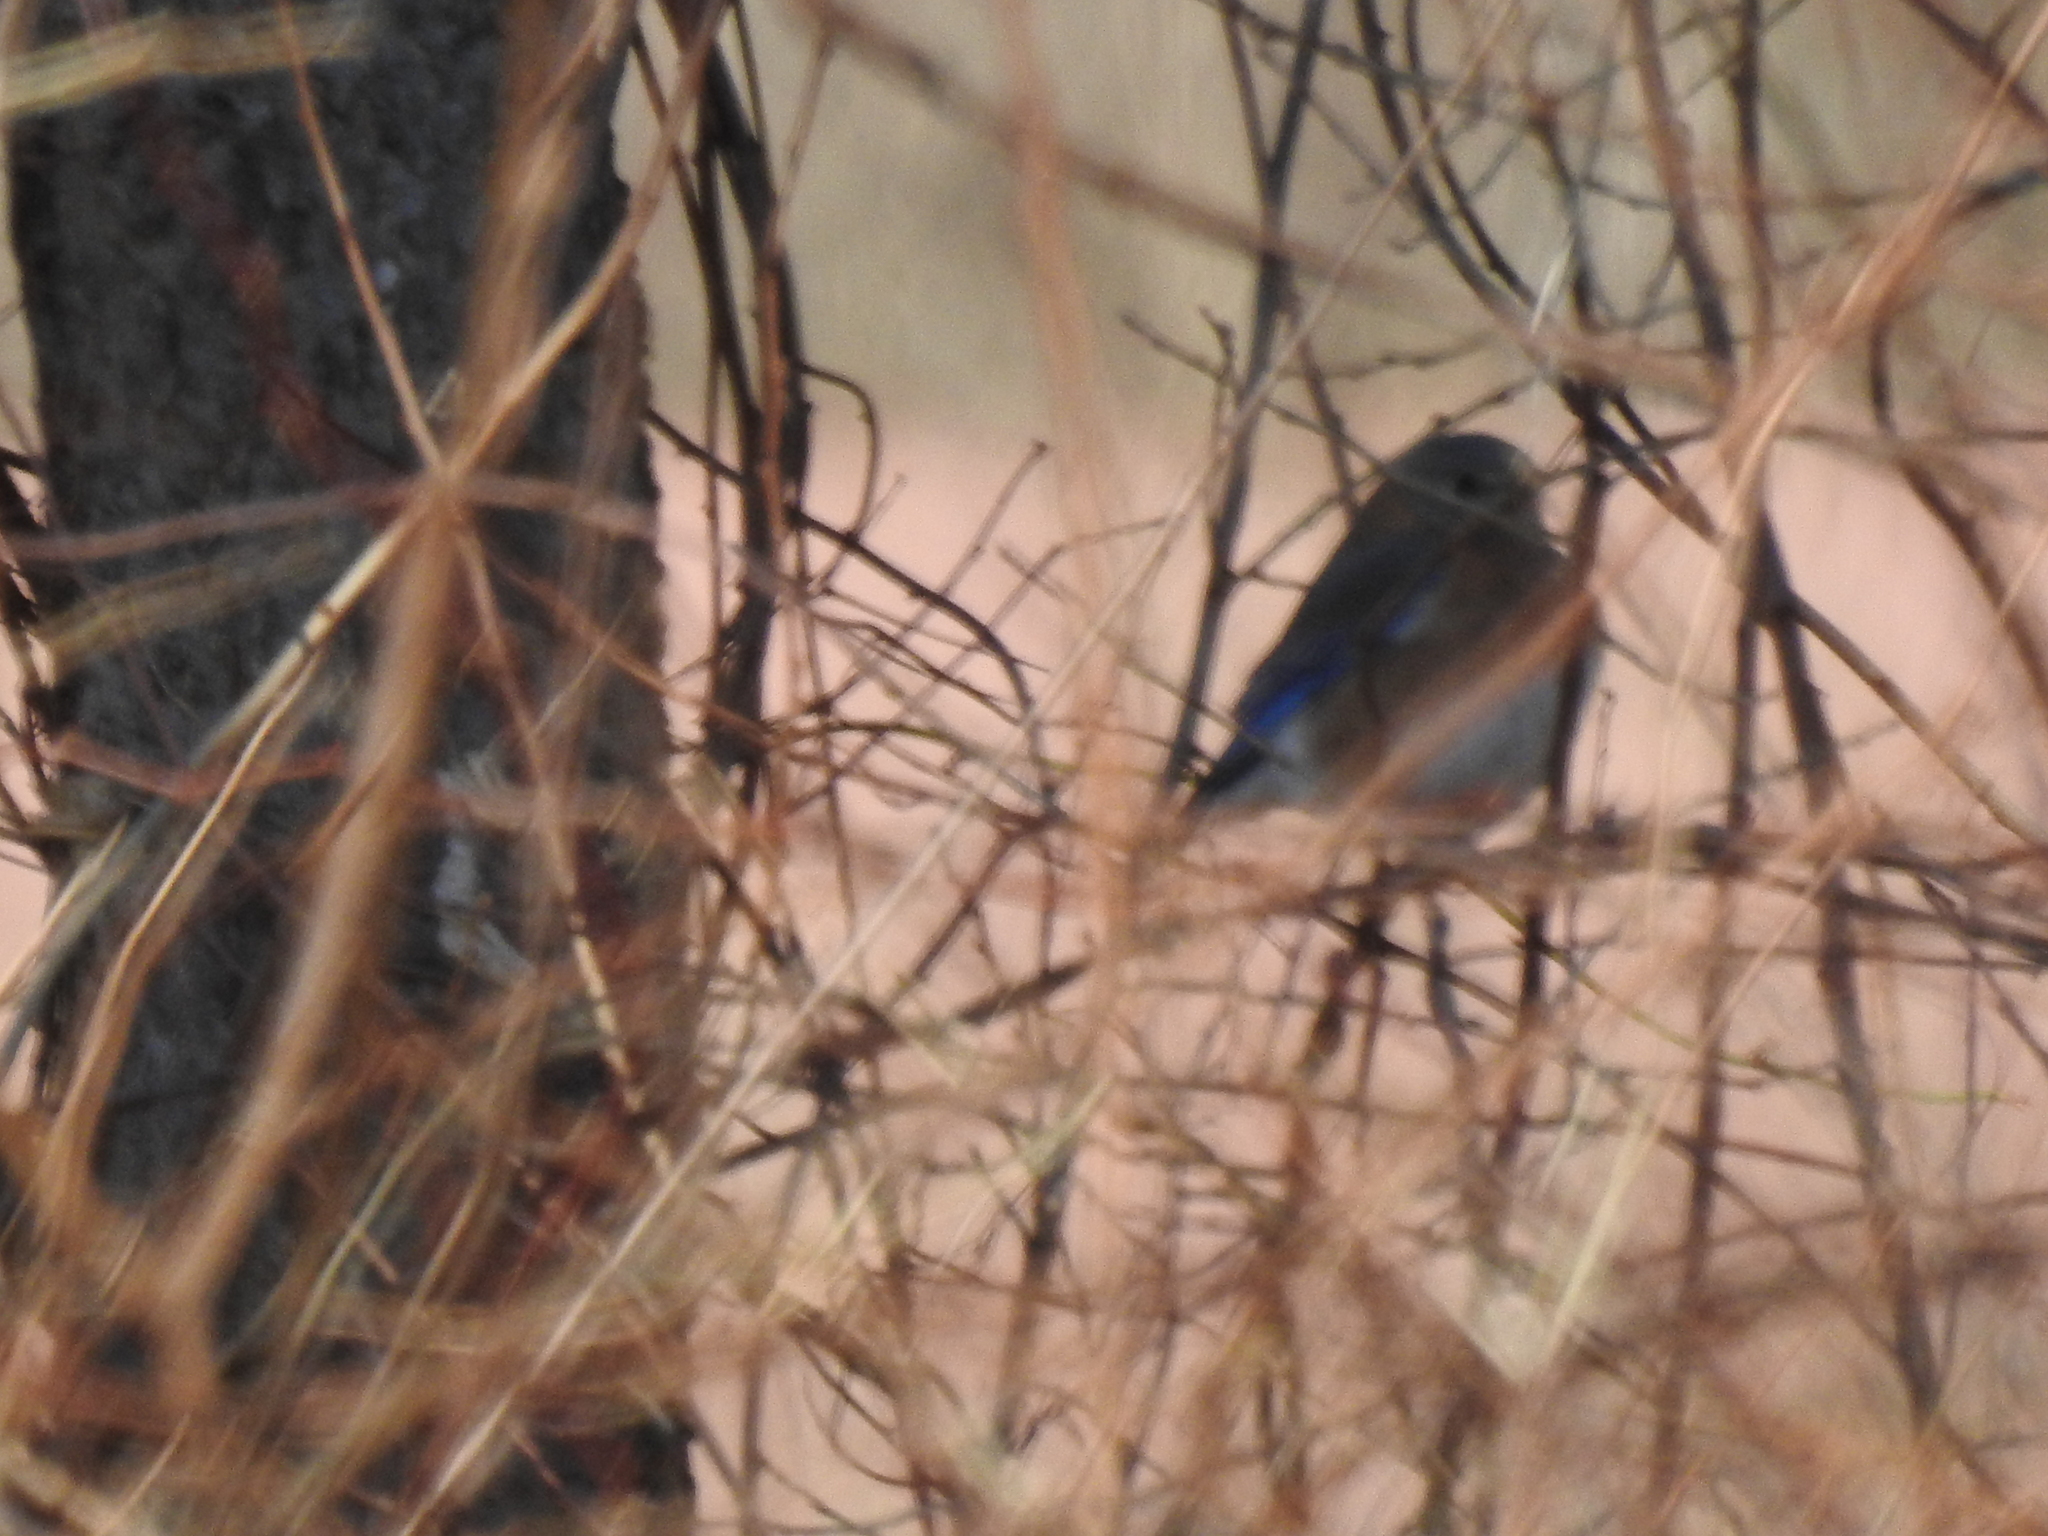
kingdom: Animalia
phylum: Chordata
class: Aves
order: Passeriformes
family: Turdidae
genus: Sialia
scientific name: Sialia sialis
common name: Eastern bluebird
